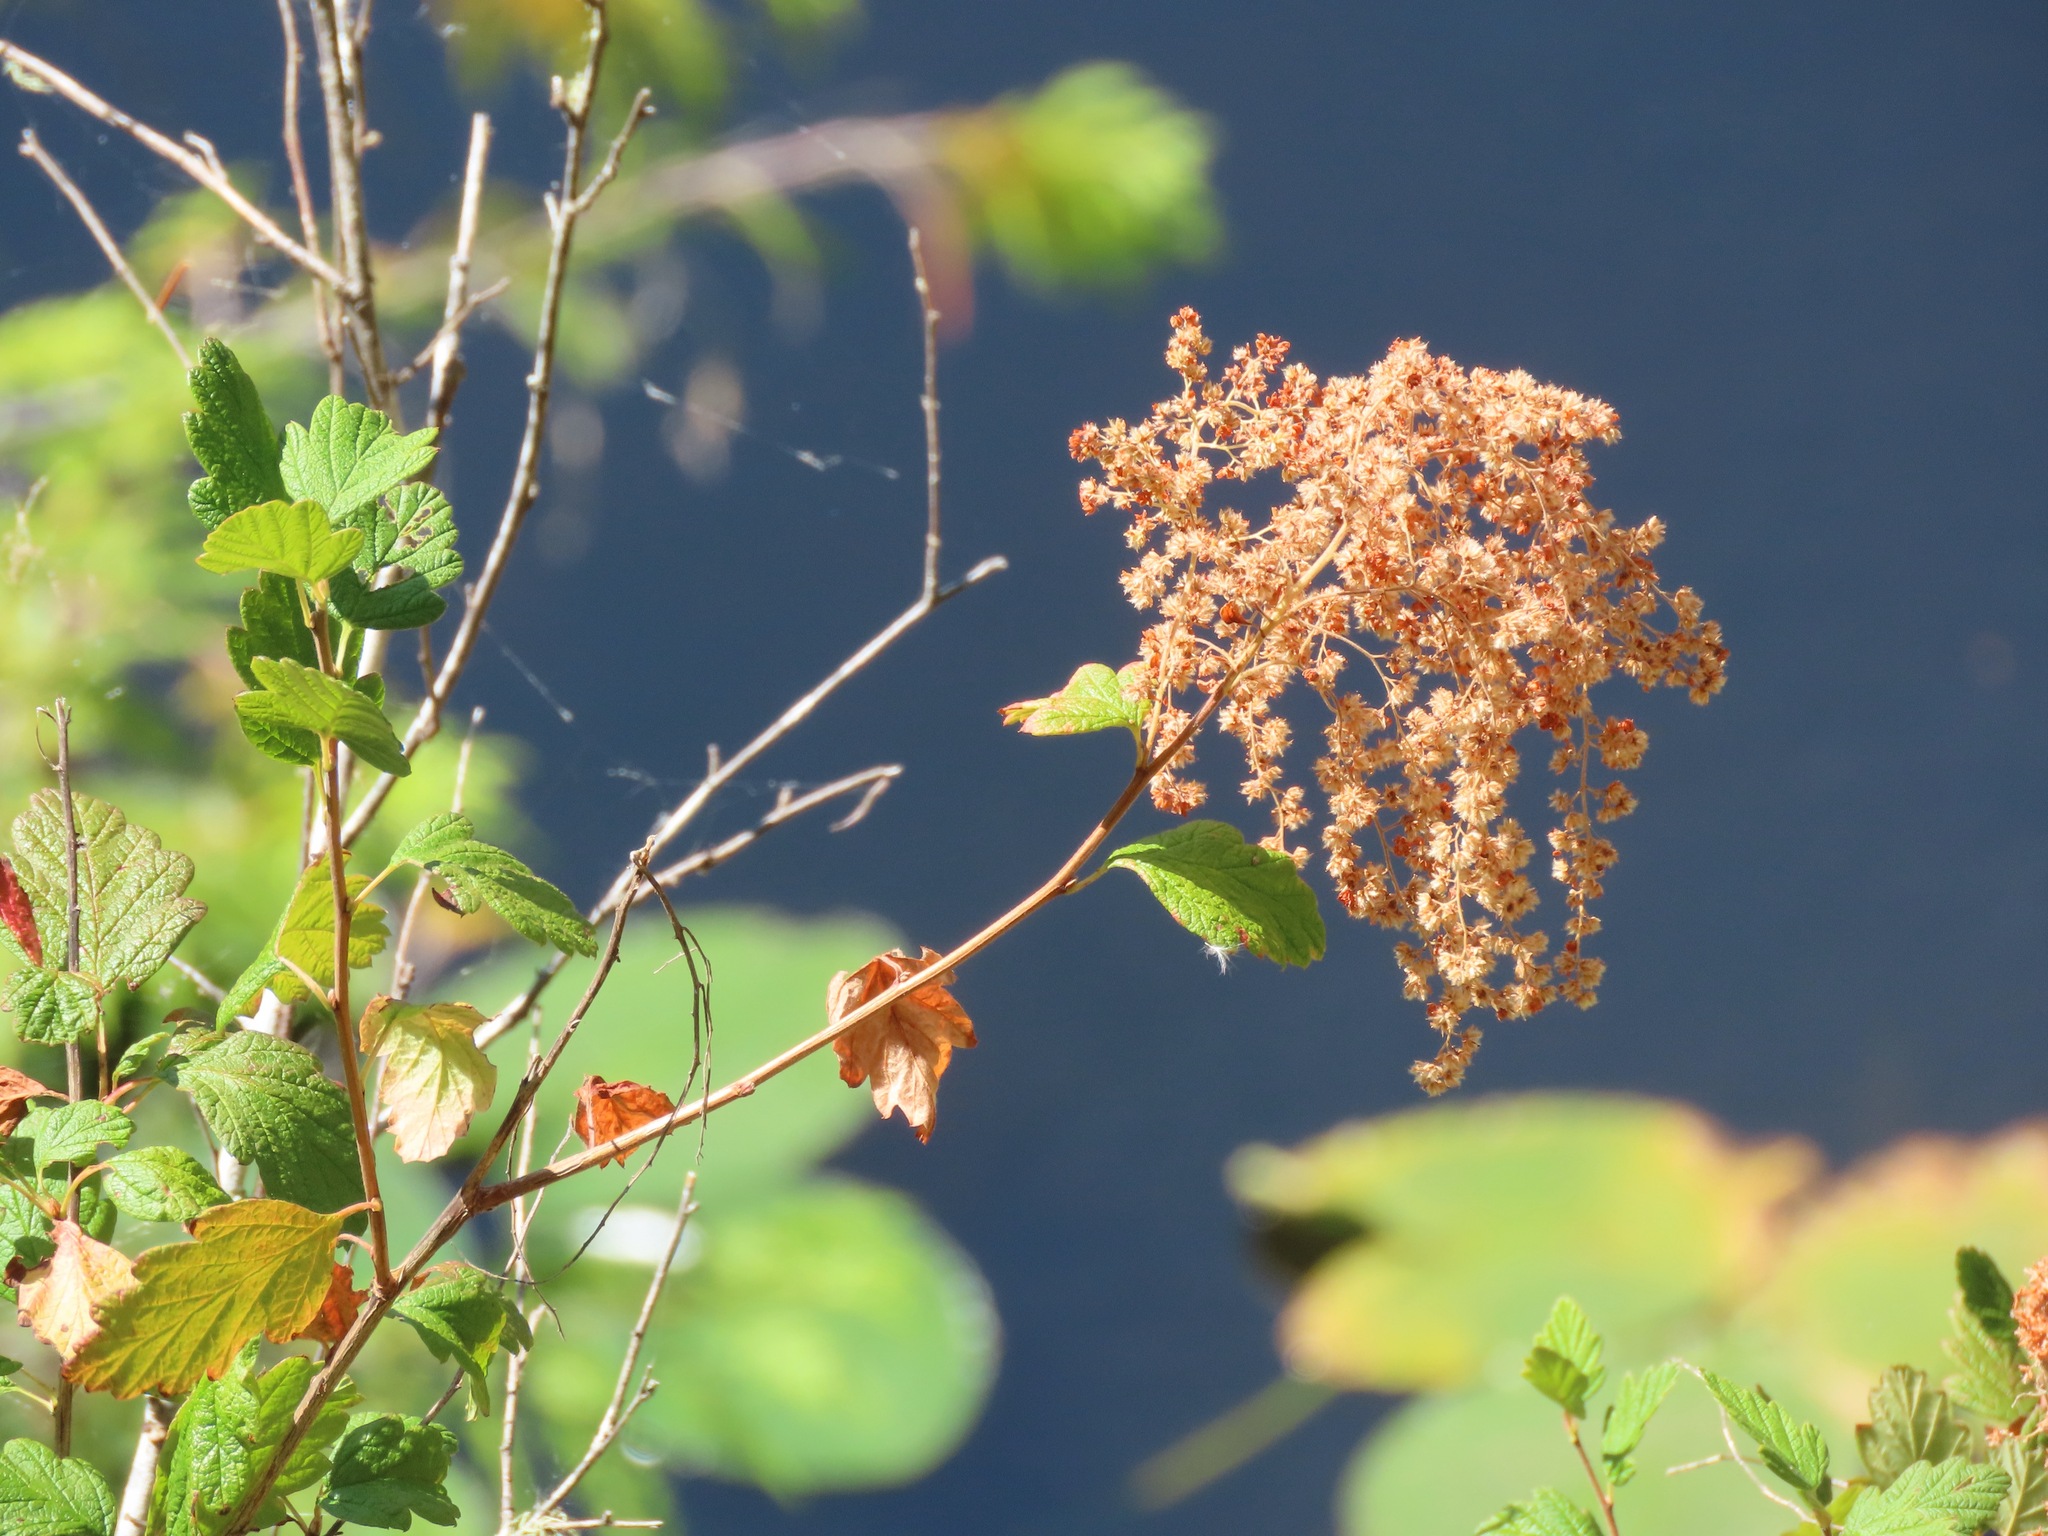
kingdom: Plantae
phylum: Tracheophyta
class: Magnoliopsida
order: Rosales
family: Rosaceae
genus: Holodiscus
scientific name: Holodiscus discolor
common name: Oceanspray
